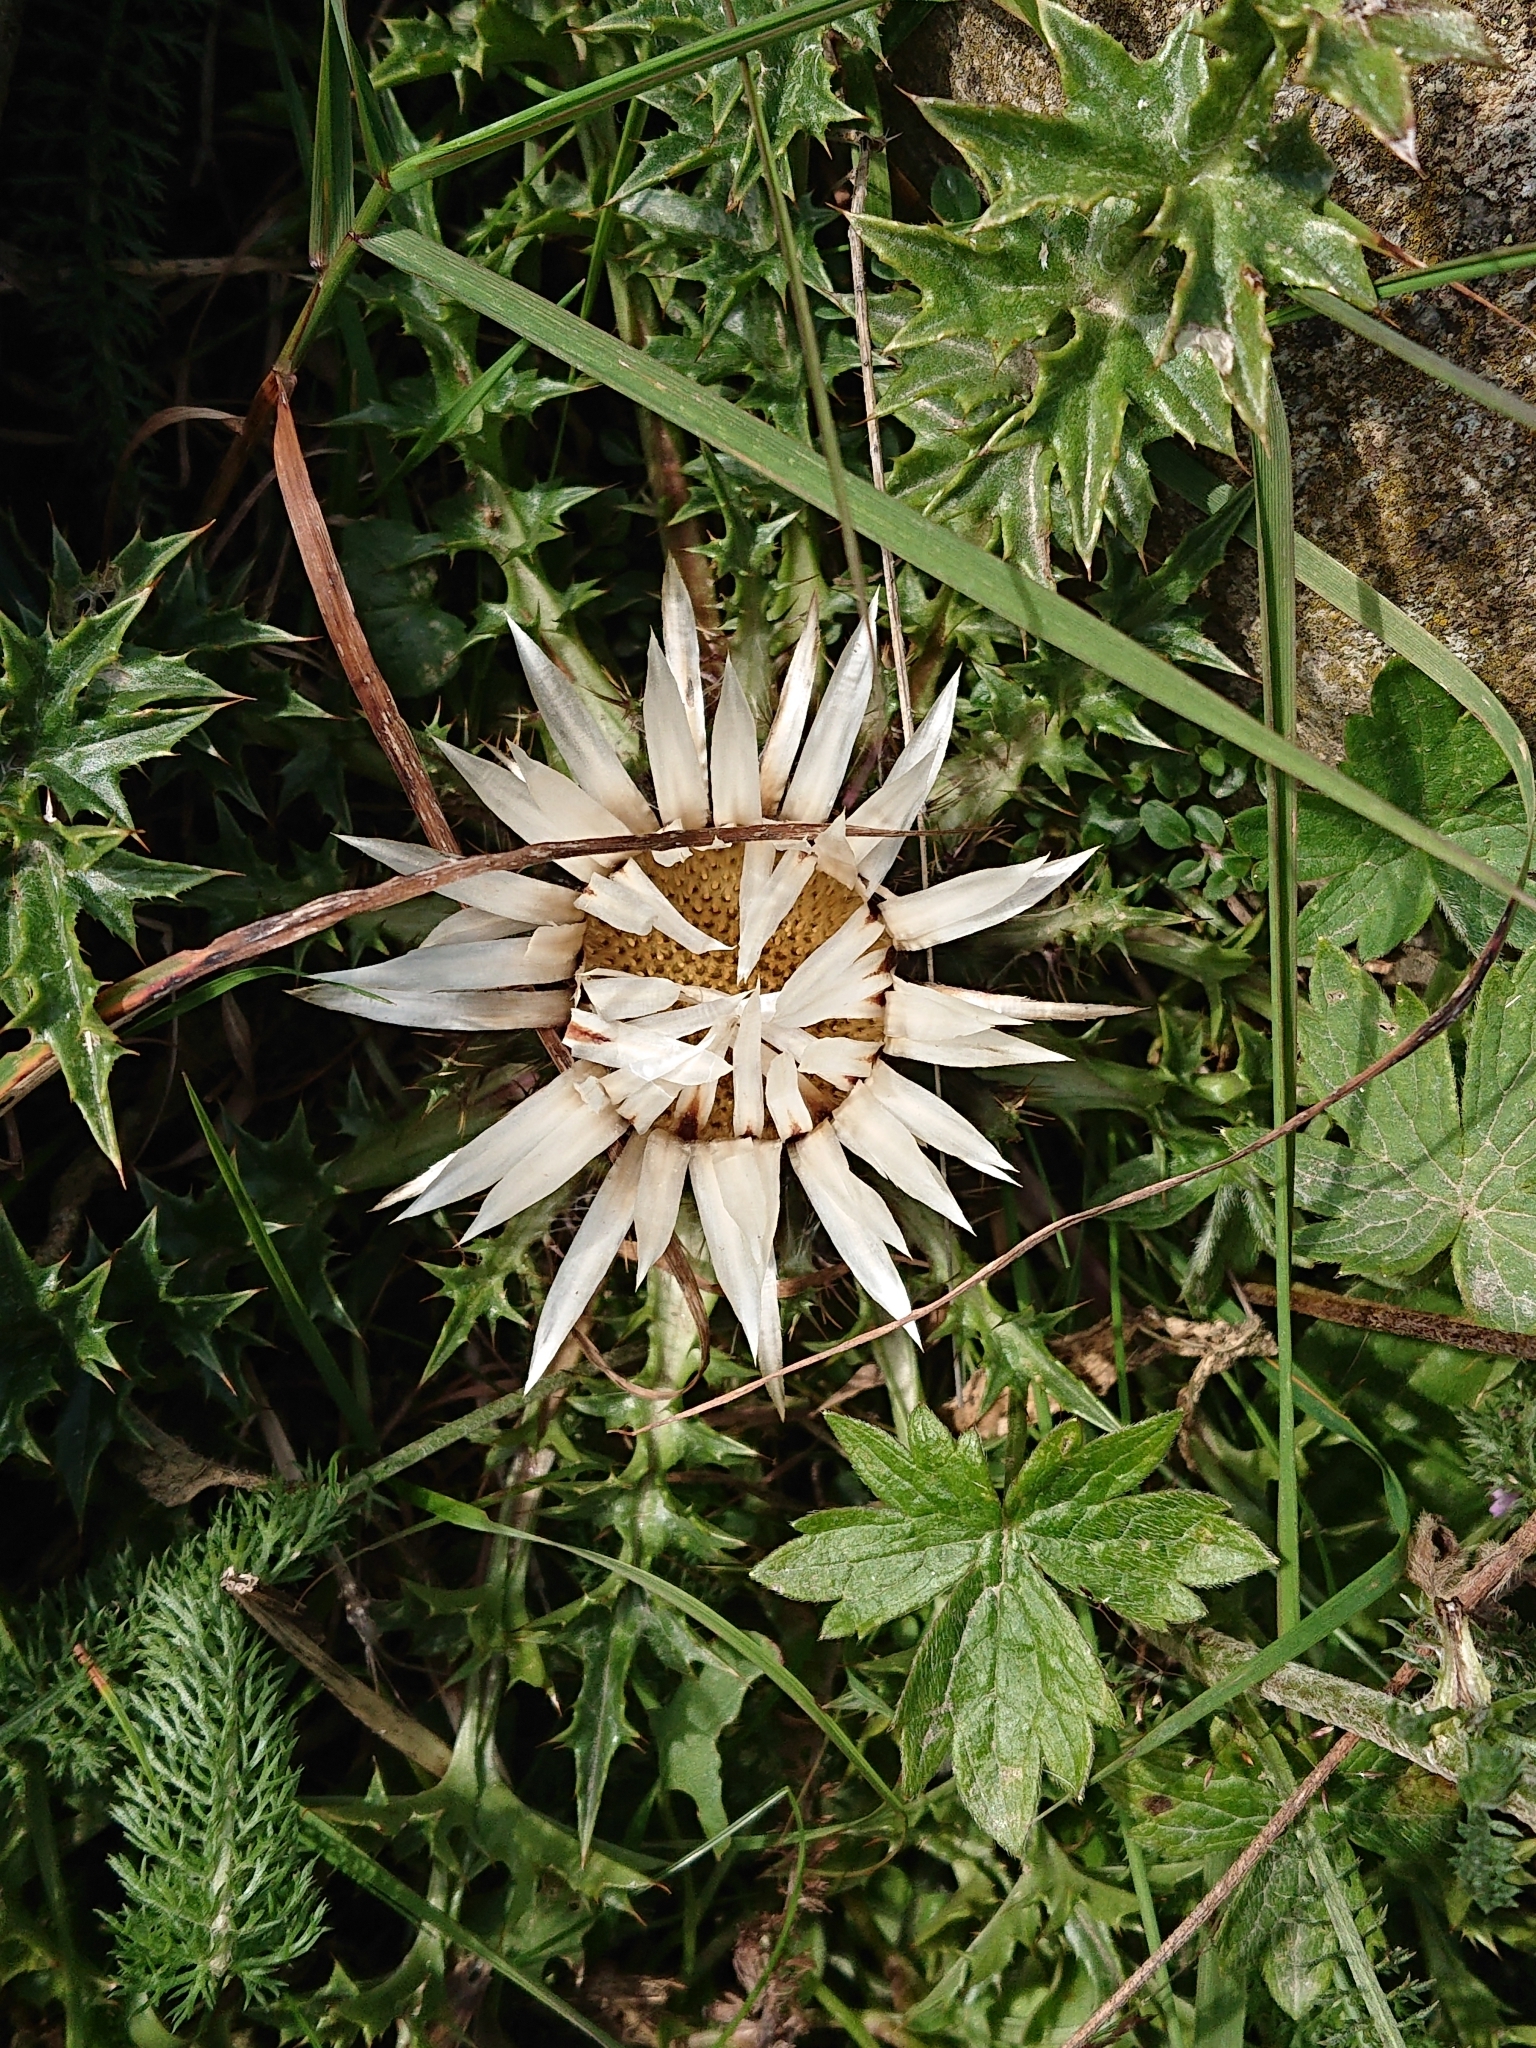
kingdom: Plantae
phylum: Tracheophyta
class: Magnoliopsida
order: Asterales
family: Asteraceae
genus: Carlina
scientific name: Carlina acaulis
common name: Stemless carline thistle
